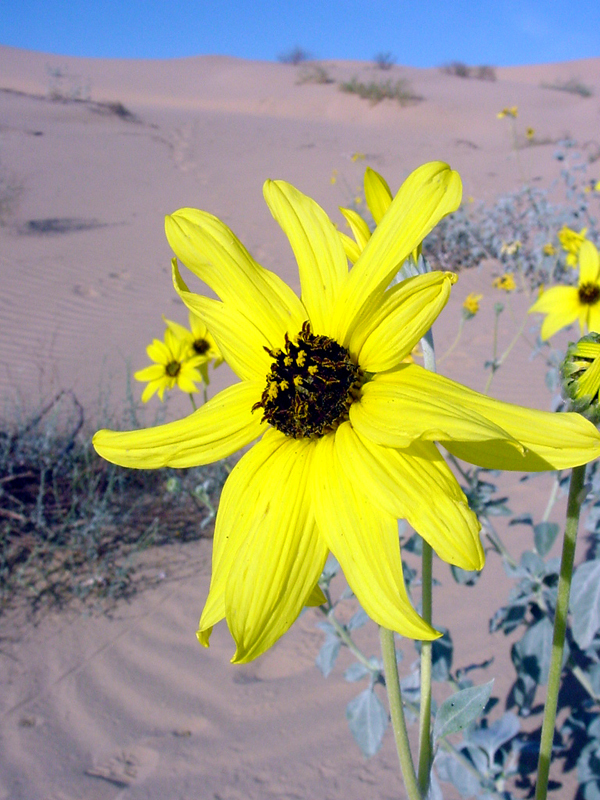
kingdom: Plantae
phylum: Tracheophyta
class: Magnoliopsida
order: Asterales
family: Asteraceae
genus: Helianthus
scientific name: Helianthus niveus
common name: Snowy sunflower
